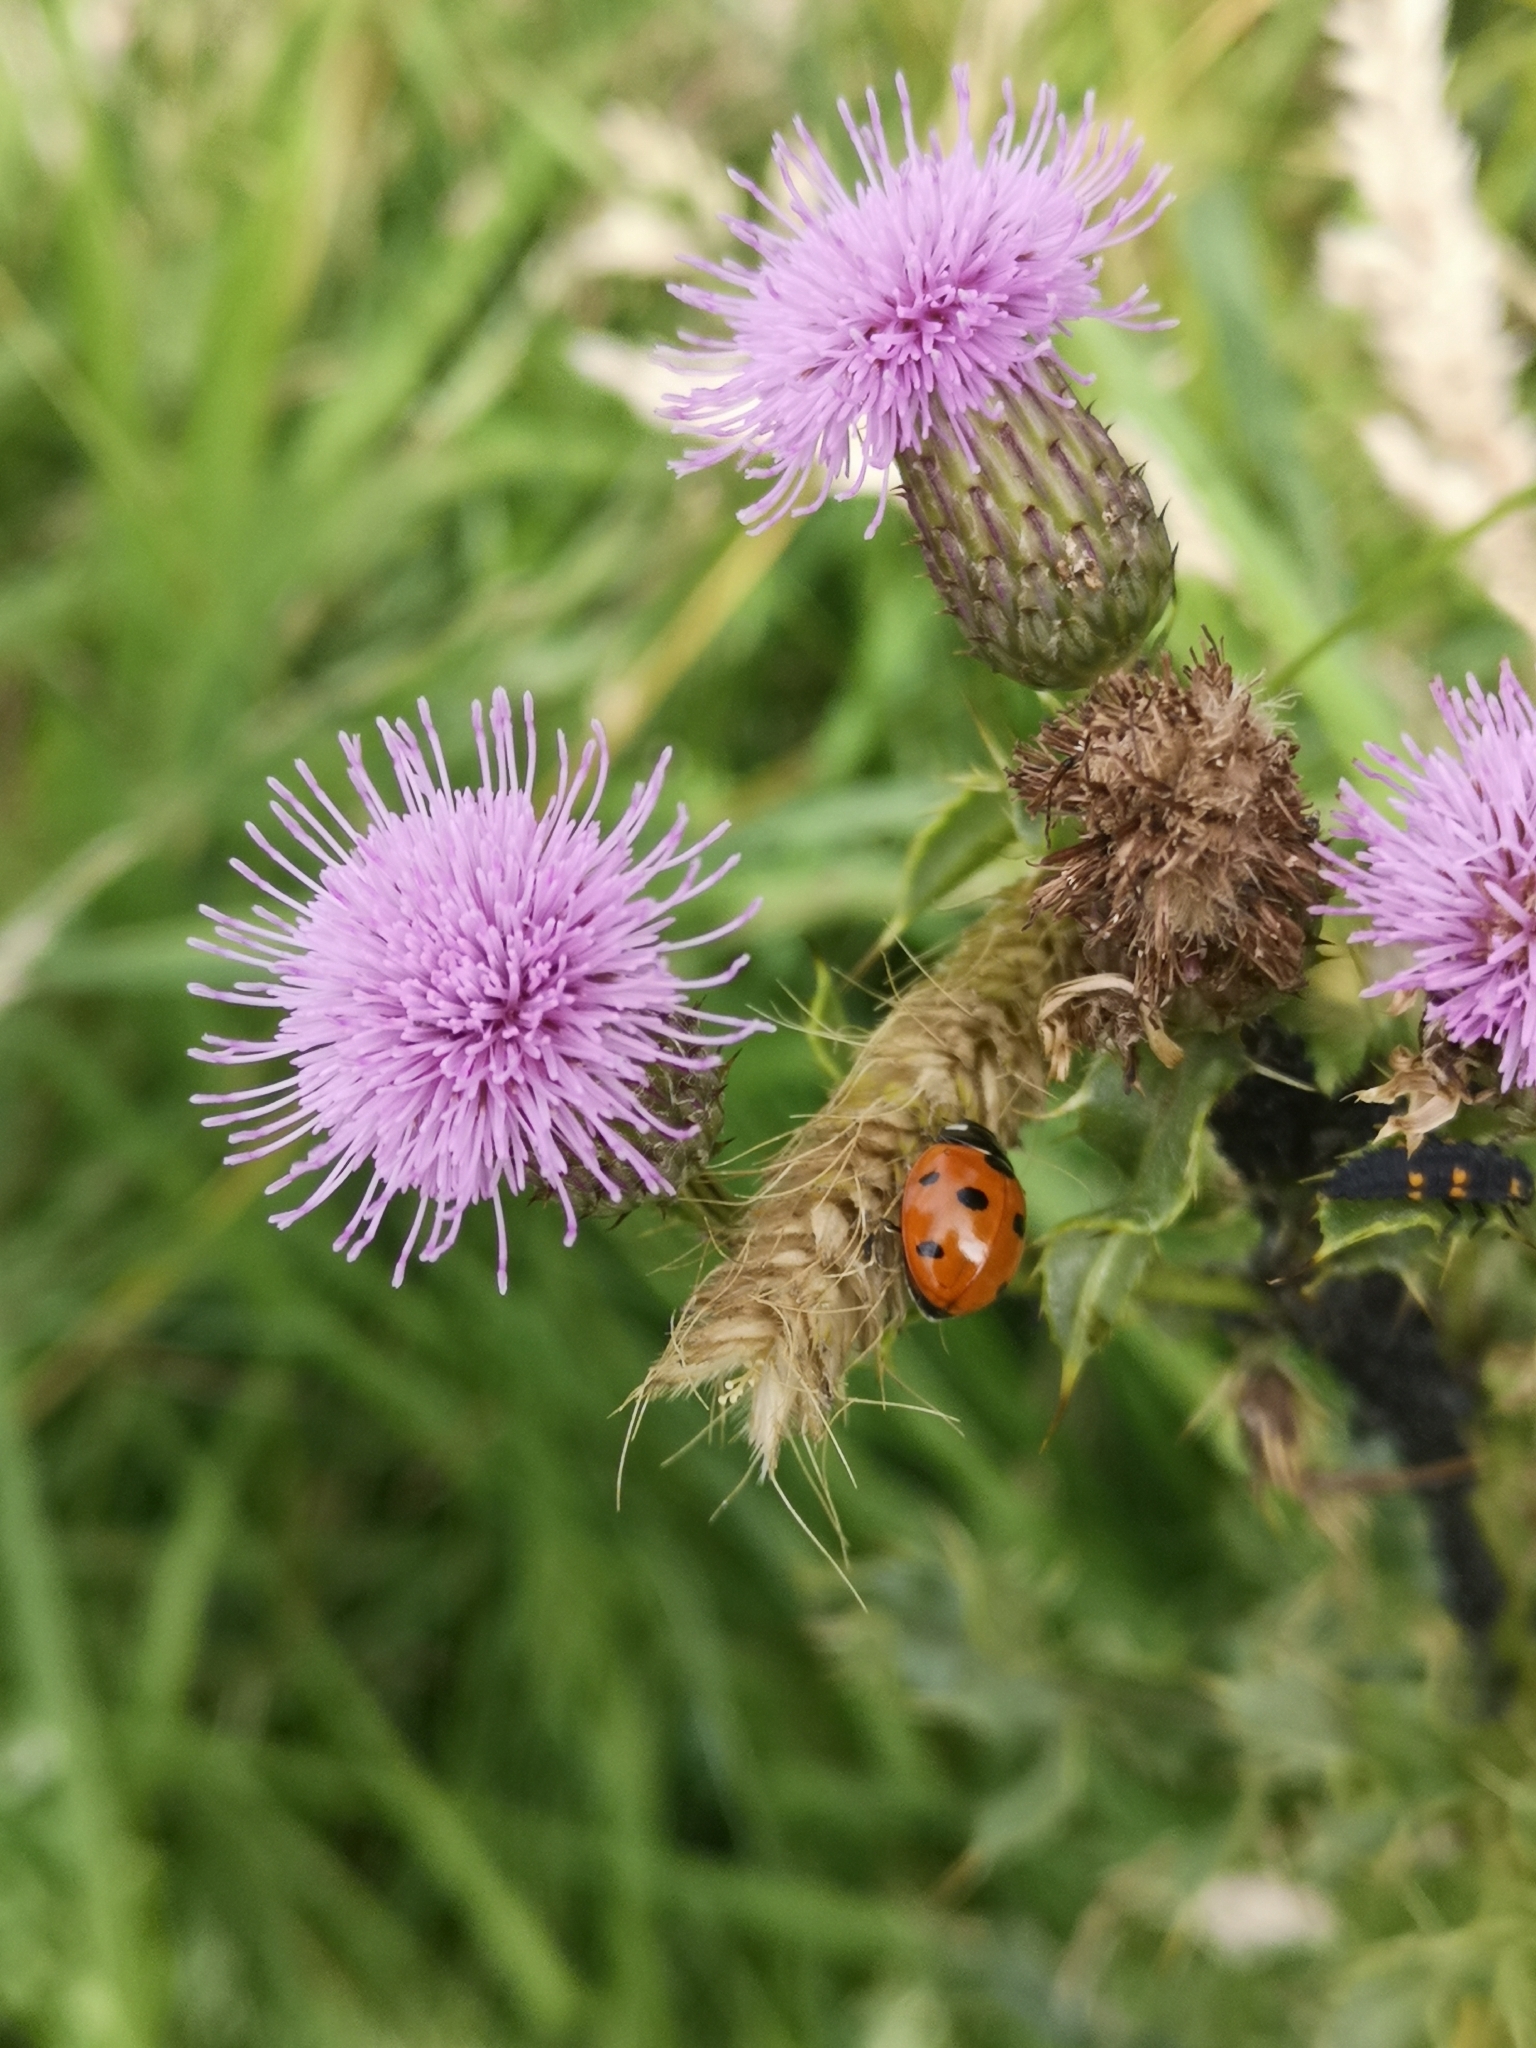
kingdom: Animalia
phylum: Arthropoda
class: Insecta
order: Coleoptera
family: Coccinellidae
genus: Coccinella
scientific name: Coccinella septempunctata
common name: Sevenspotted lady beetle
